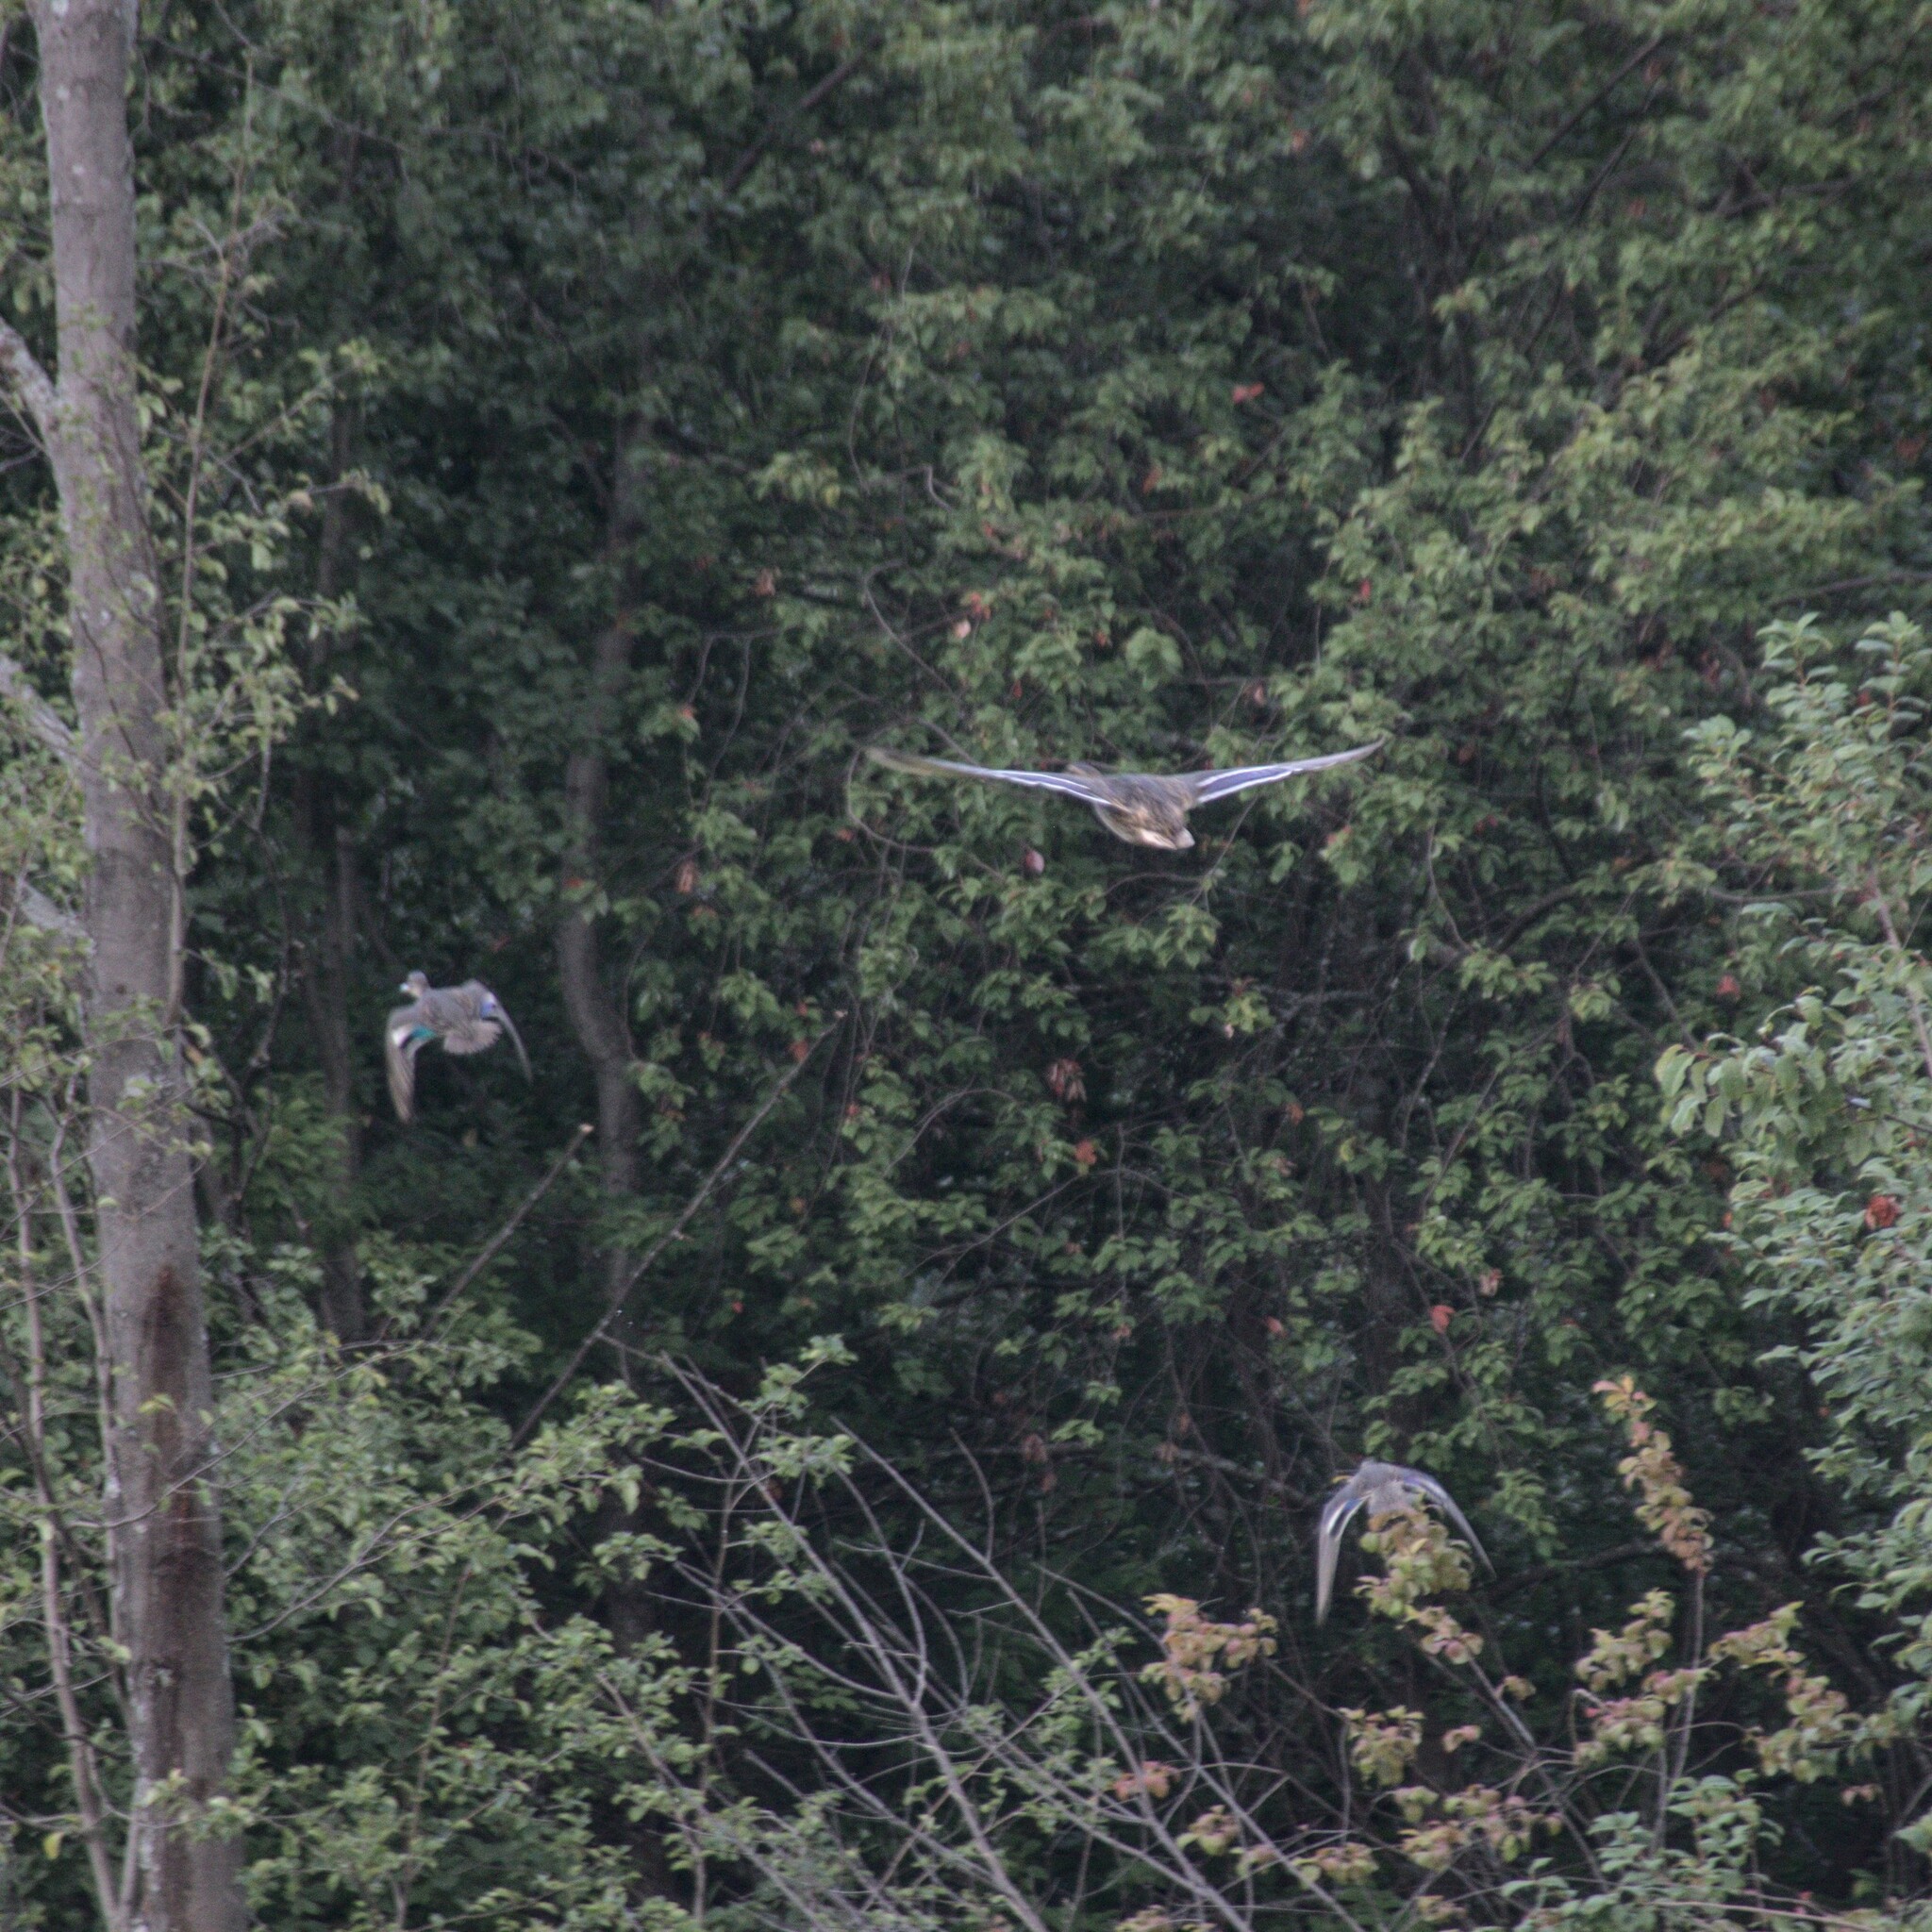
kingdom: Animalia
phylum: Chordata
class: Aves
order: Anseriformes
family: Anatidae
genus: Anas
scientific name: Anas platyrhynchos
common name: Mallard
